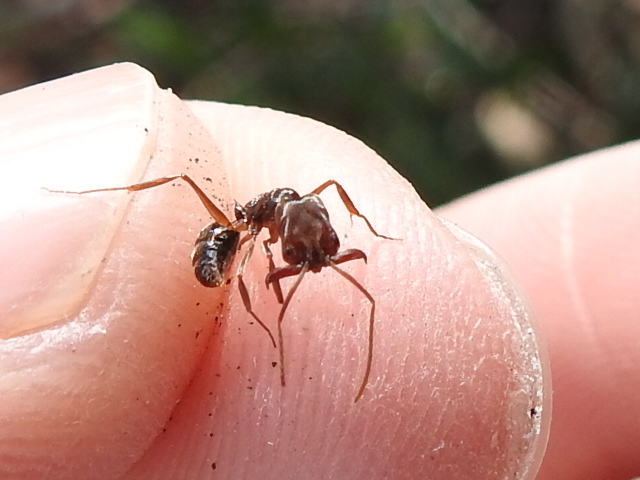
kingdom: Animalia
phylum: Arthropoda
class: Insecta
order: Hymenoptera
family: Formicidae
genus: Odontomachus
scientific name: Odontomachus ruginodis
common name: Trapjaw ant
